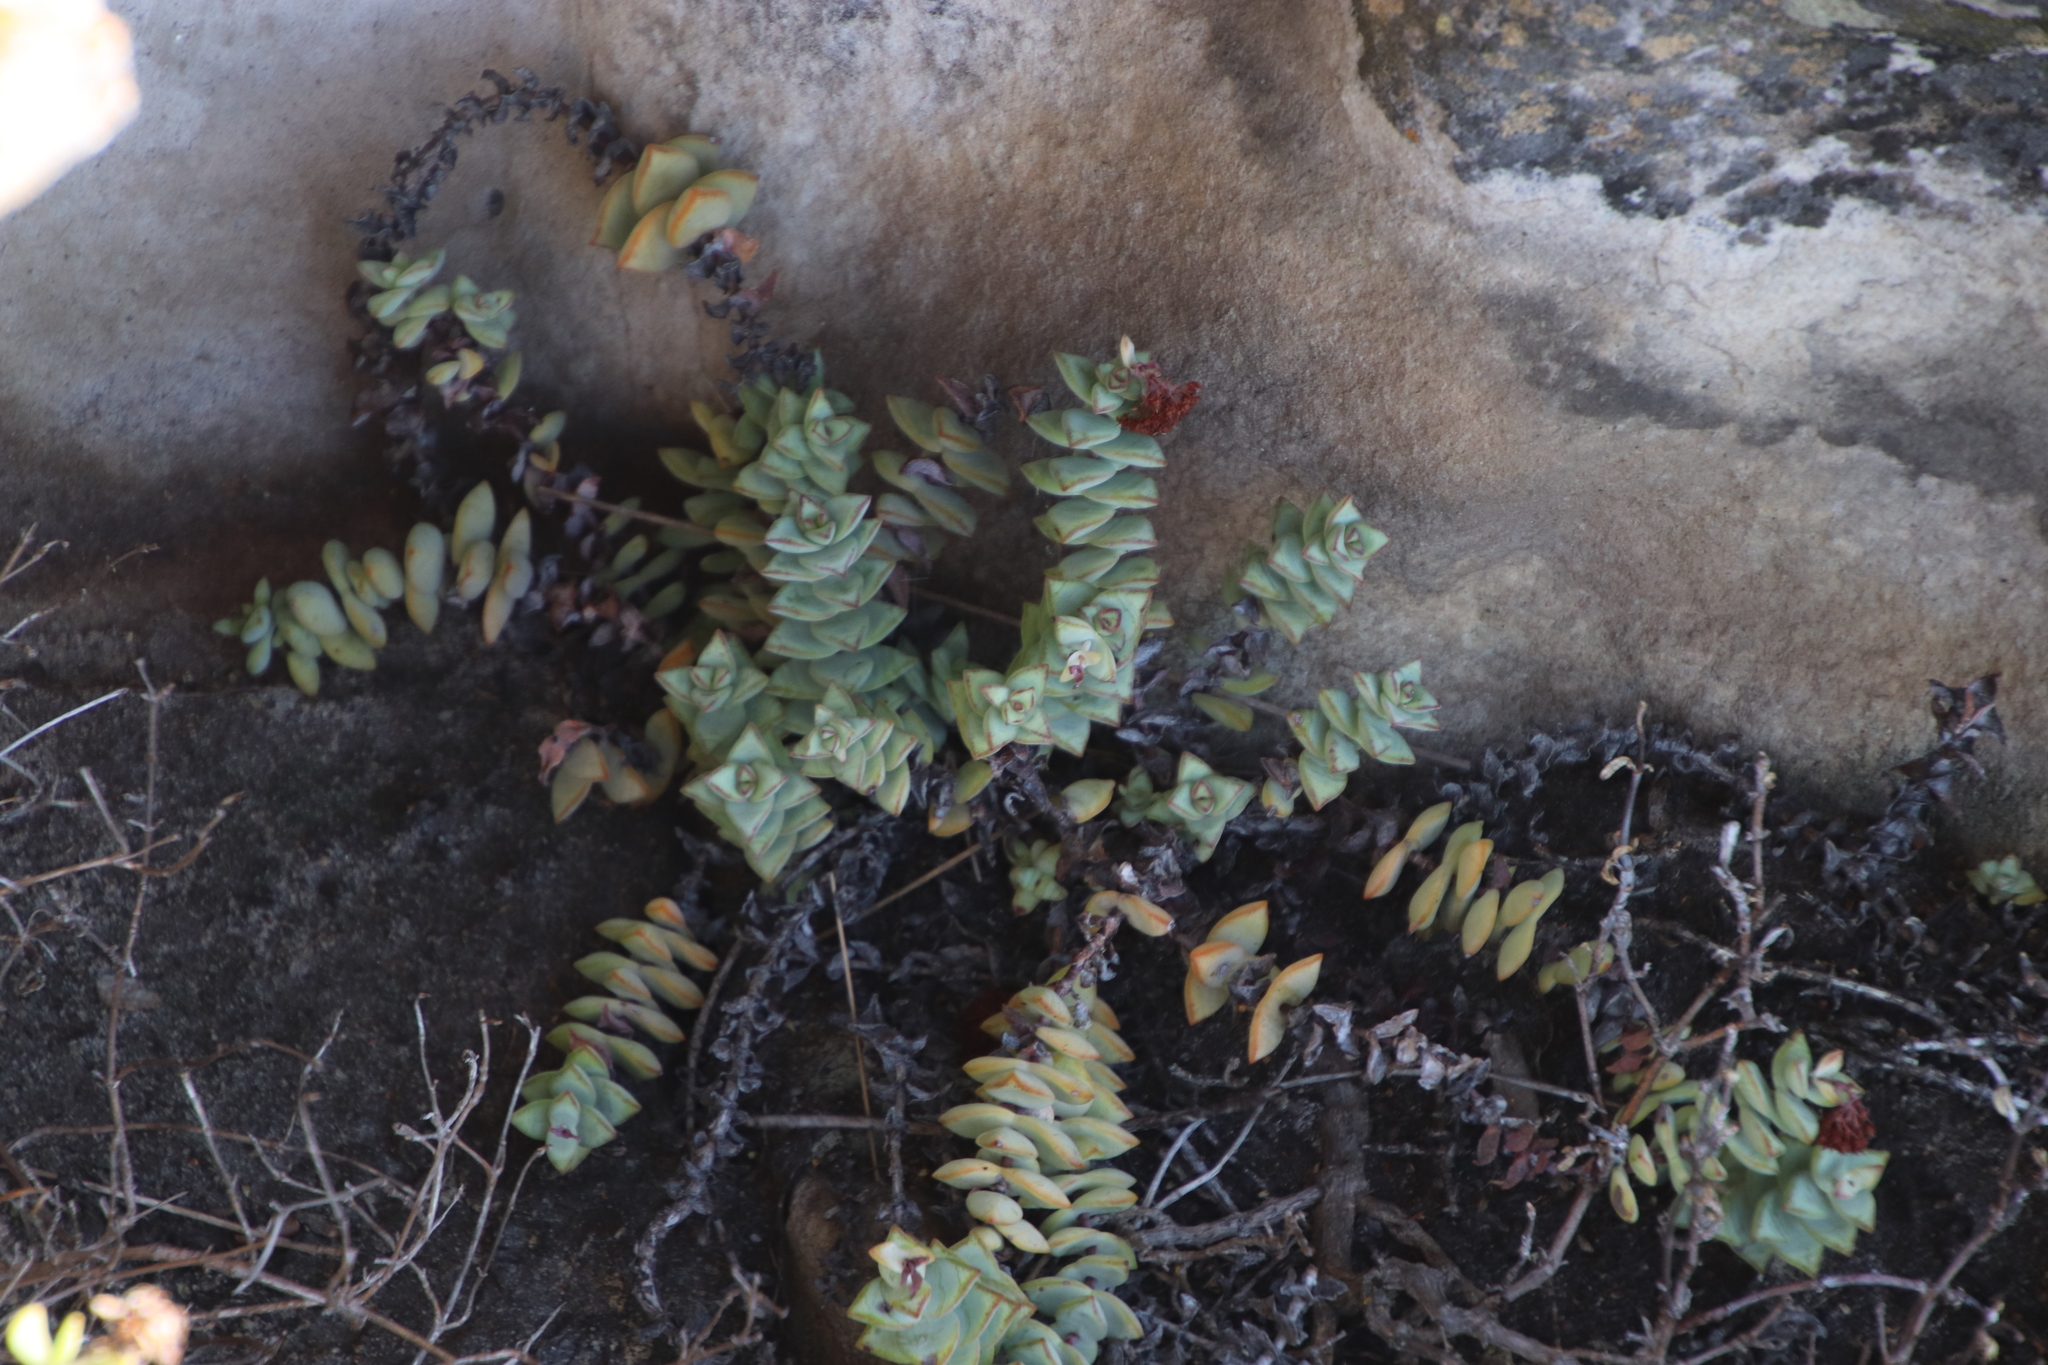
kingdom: Plantae
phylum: Tracheophyta
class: Magnoliopsida
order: Saxifragales
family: Crassulaceae
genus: Crassula
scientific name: Crassula rupestris
